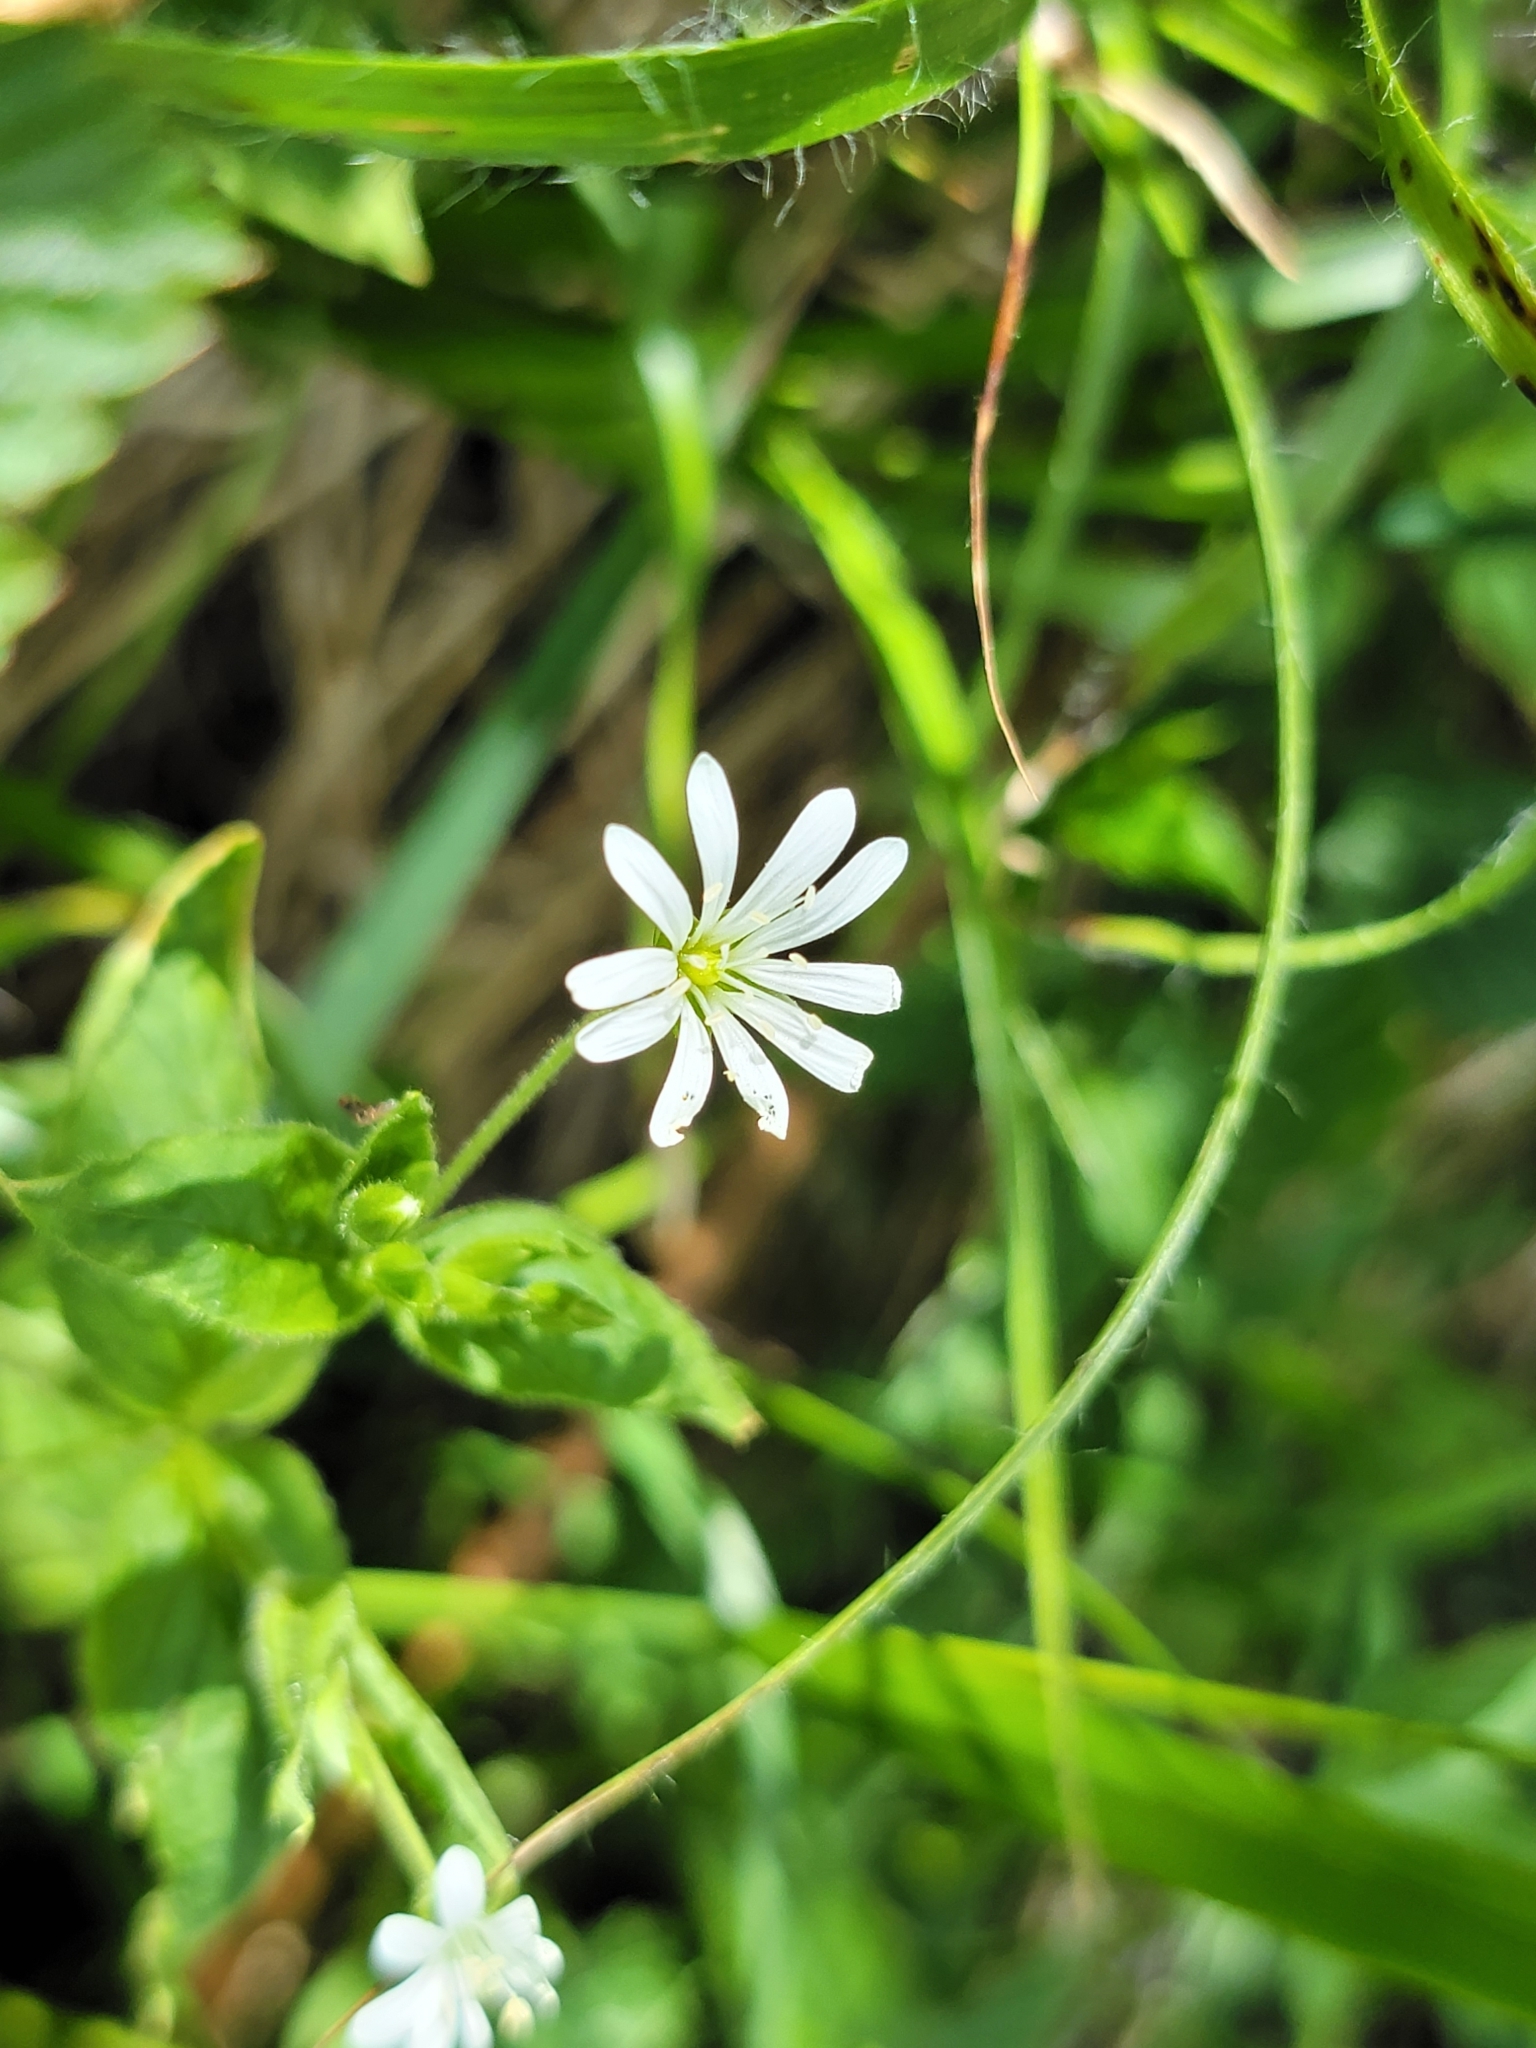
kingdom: Plantae
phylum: Tracheophyta
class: Magnoliopsida
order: Caryophyllales
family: Caryophyllaceae
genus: Stellaria
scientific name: Stellaria nemorum
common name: Wood stitchwort
